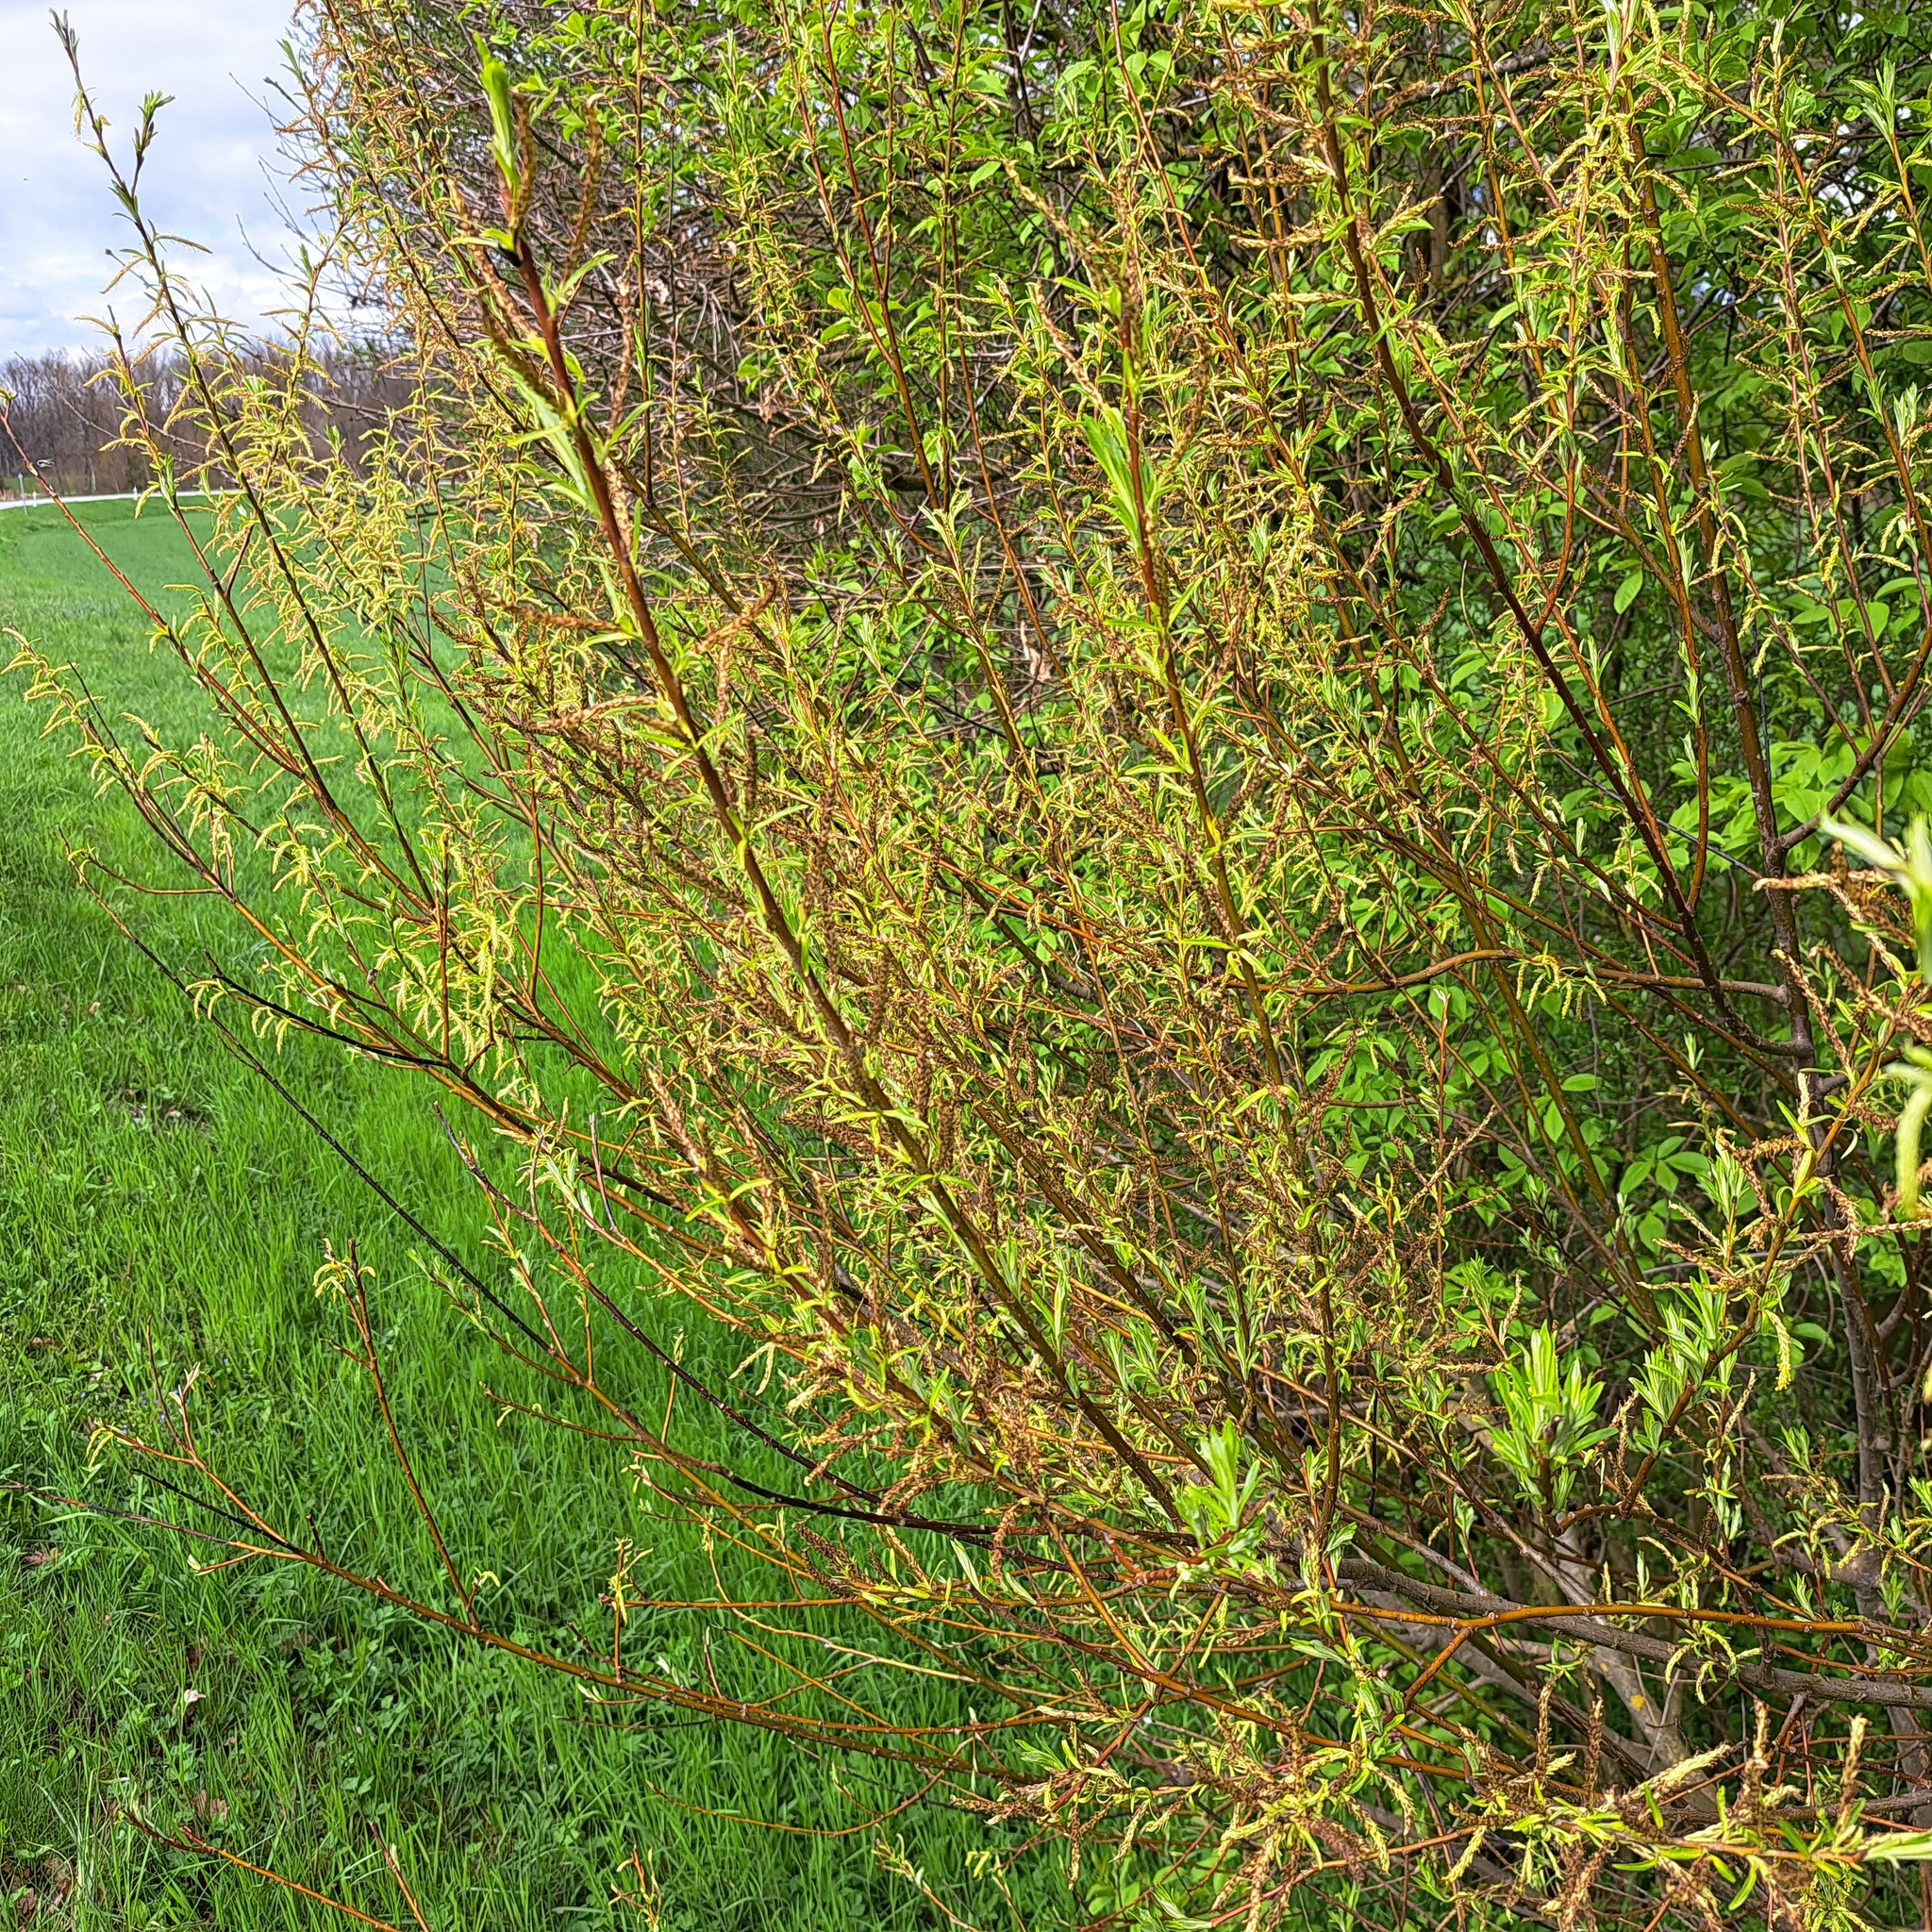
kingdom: Plantae
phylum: Tracheophyta
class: Magnoliopsida
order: Malpighiales
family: Salicaceae
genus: Salix
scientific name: Salix eleagnos
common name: Elaeagnus willow
